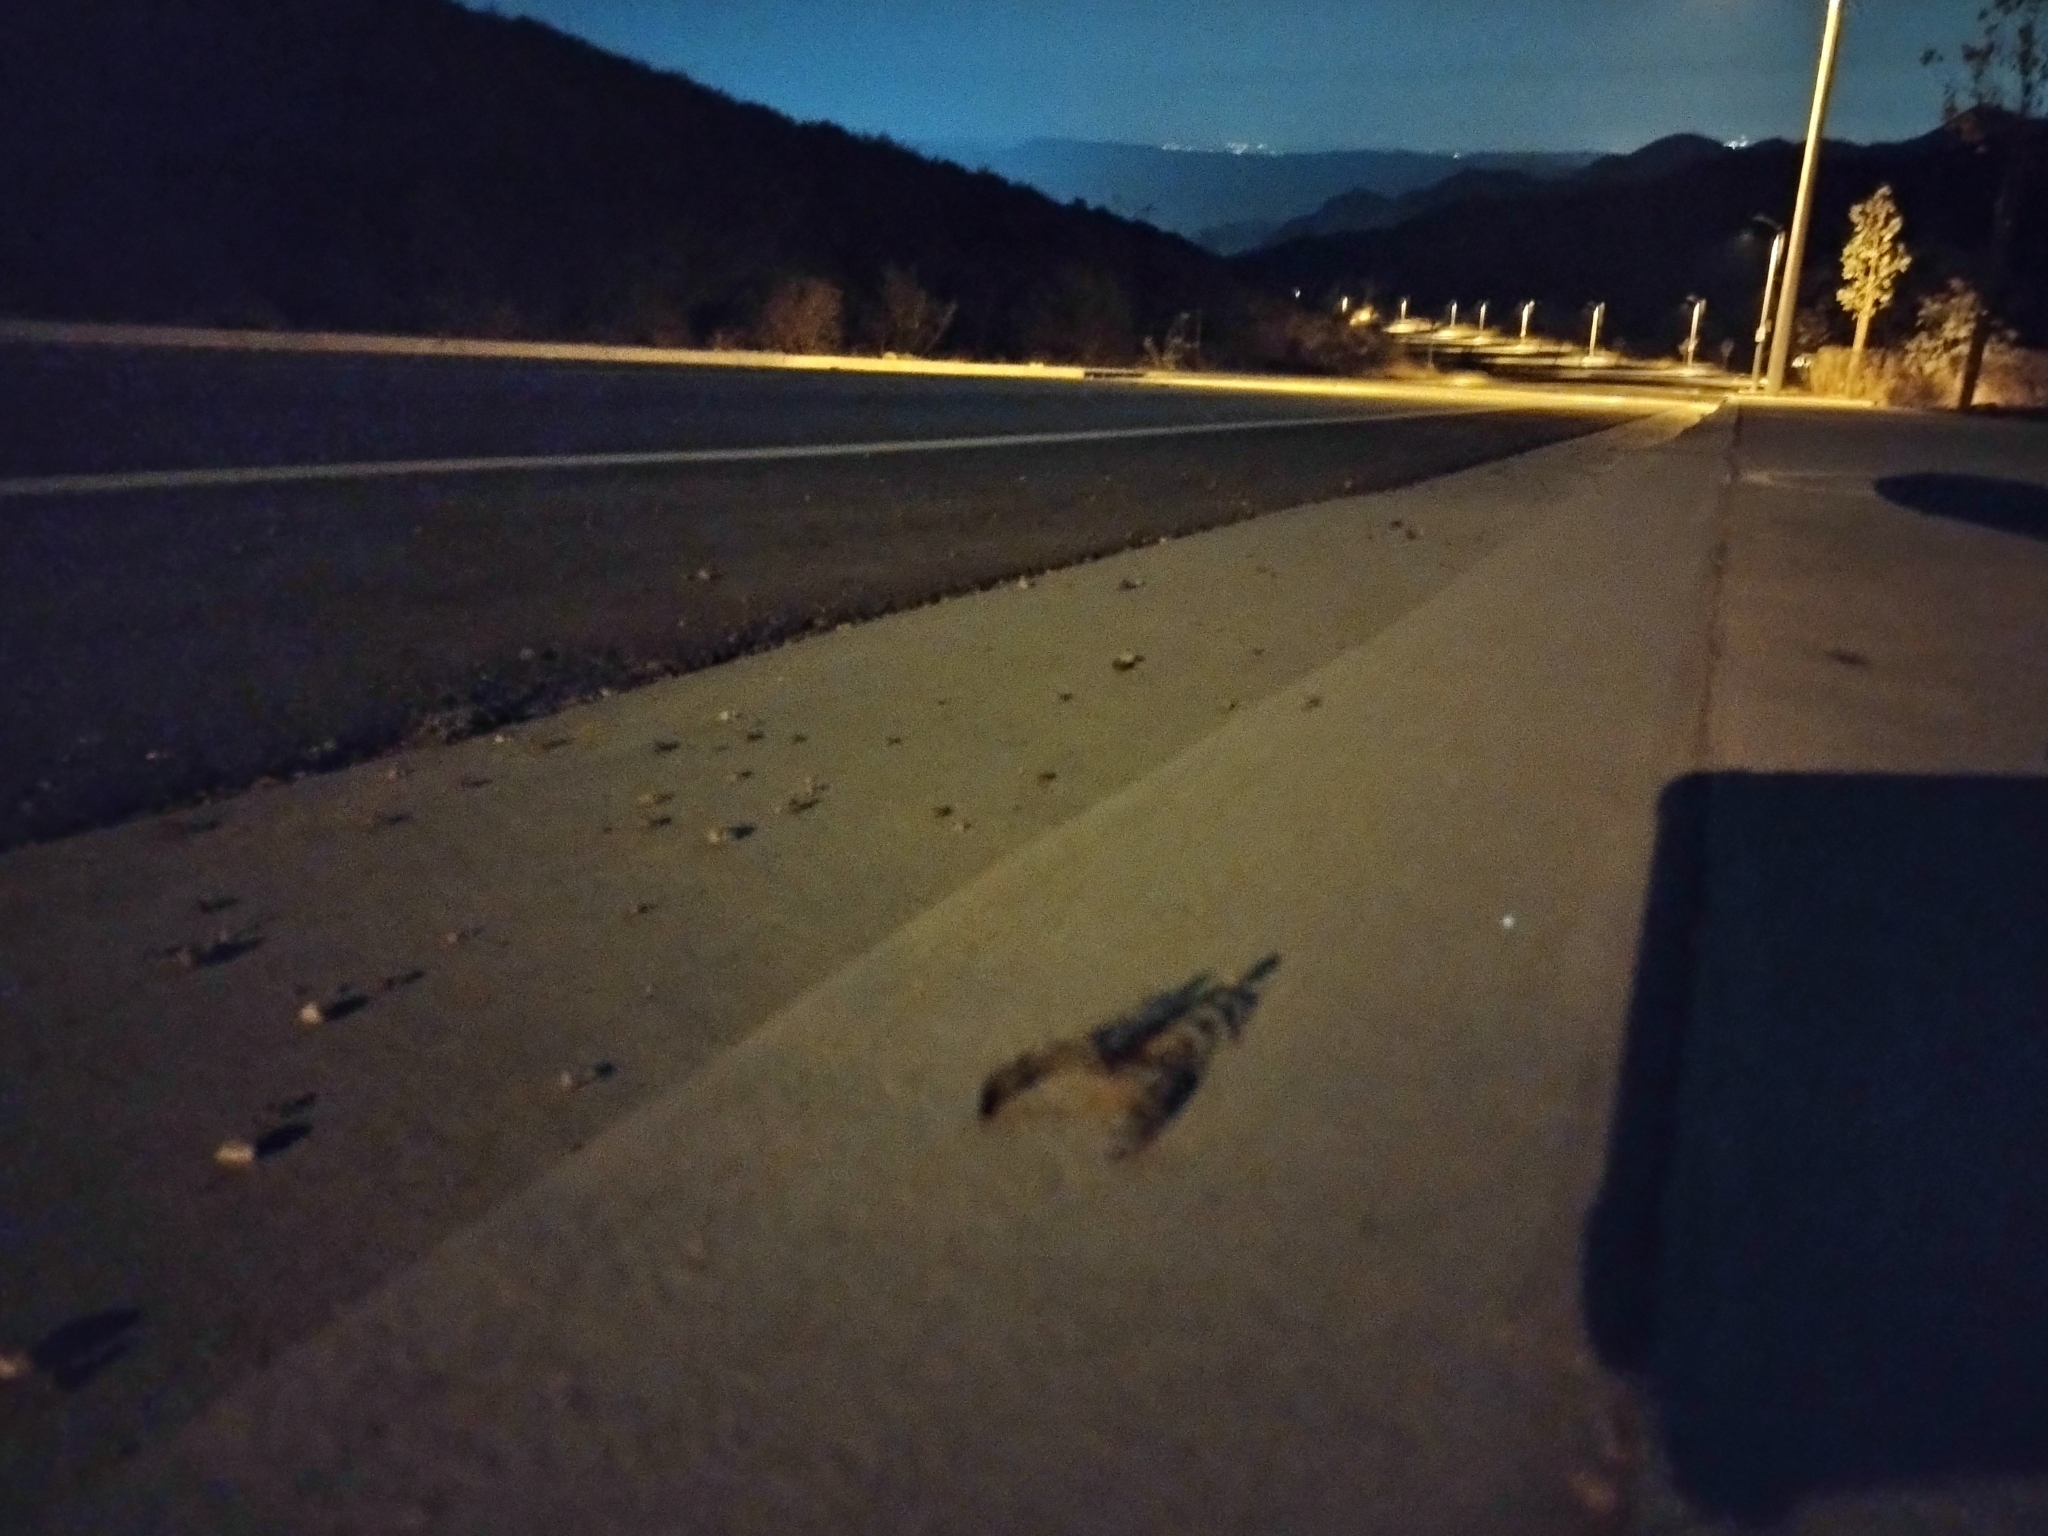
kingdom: Animalia
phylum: Arthropoda
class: Arachnida
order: Scorpiones
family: Chactidae
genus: Anuroctonus
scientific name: Anuroctonus pococki
